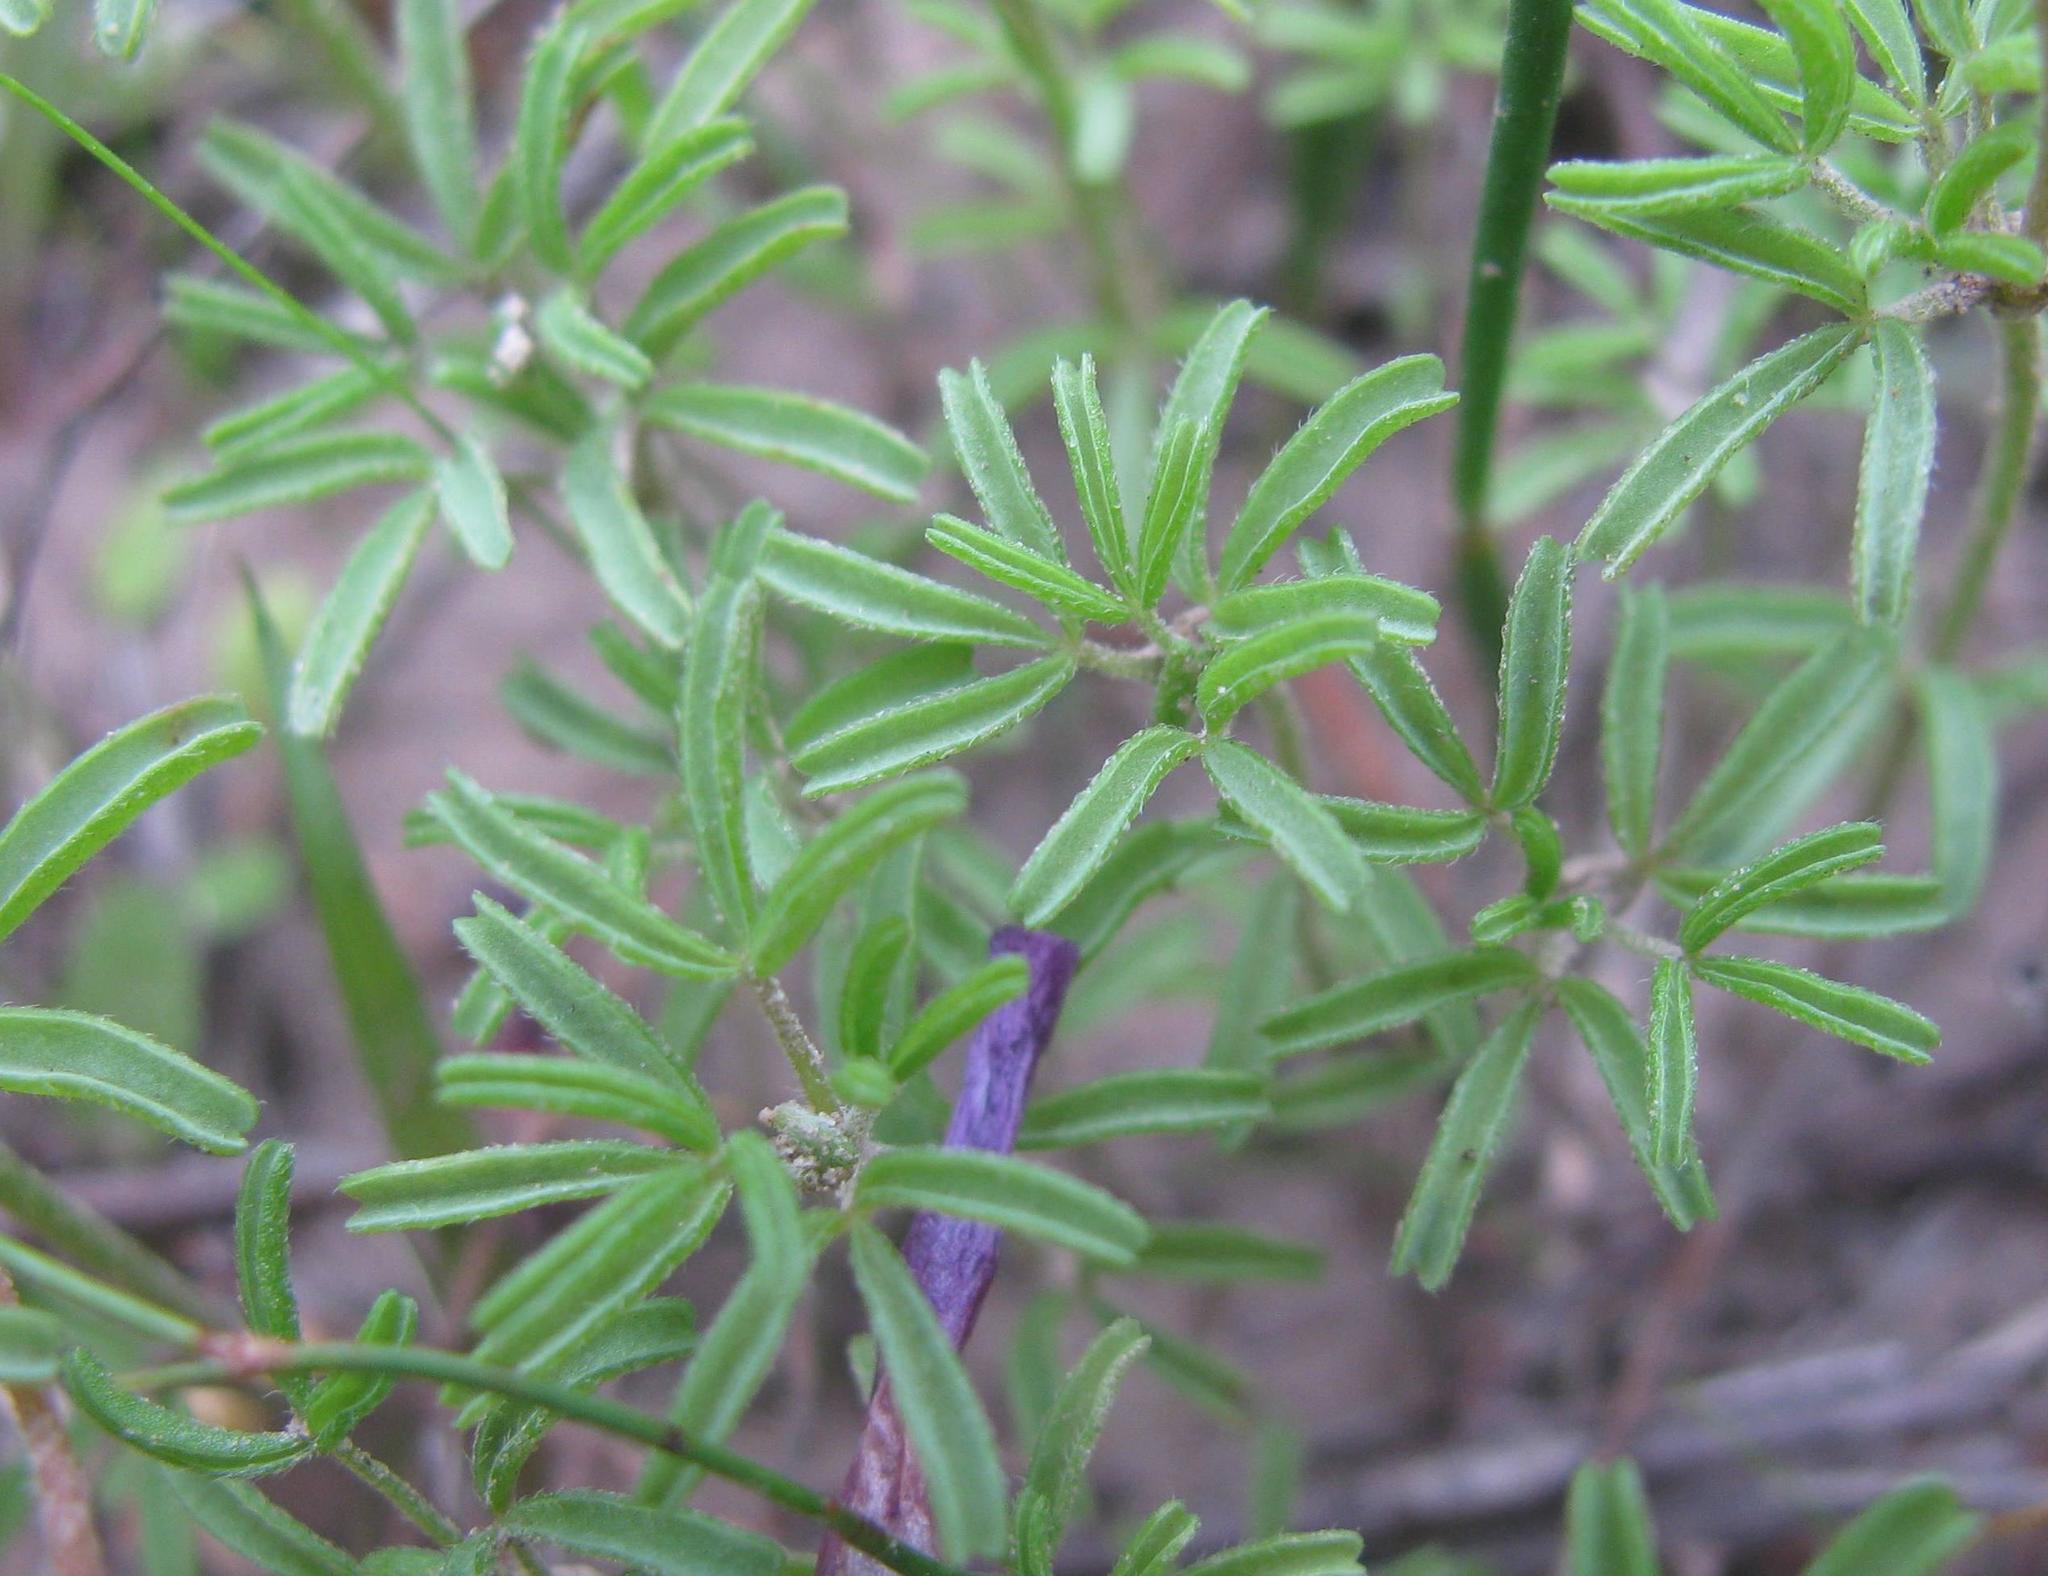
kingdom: Plantae
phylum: Tracheophyta
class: Magnoliopsida
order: Oxalidales
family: Oxalidaceae
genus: Oxalis
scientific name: Oxalis glabra
